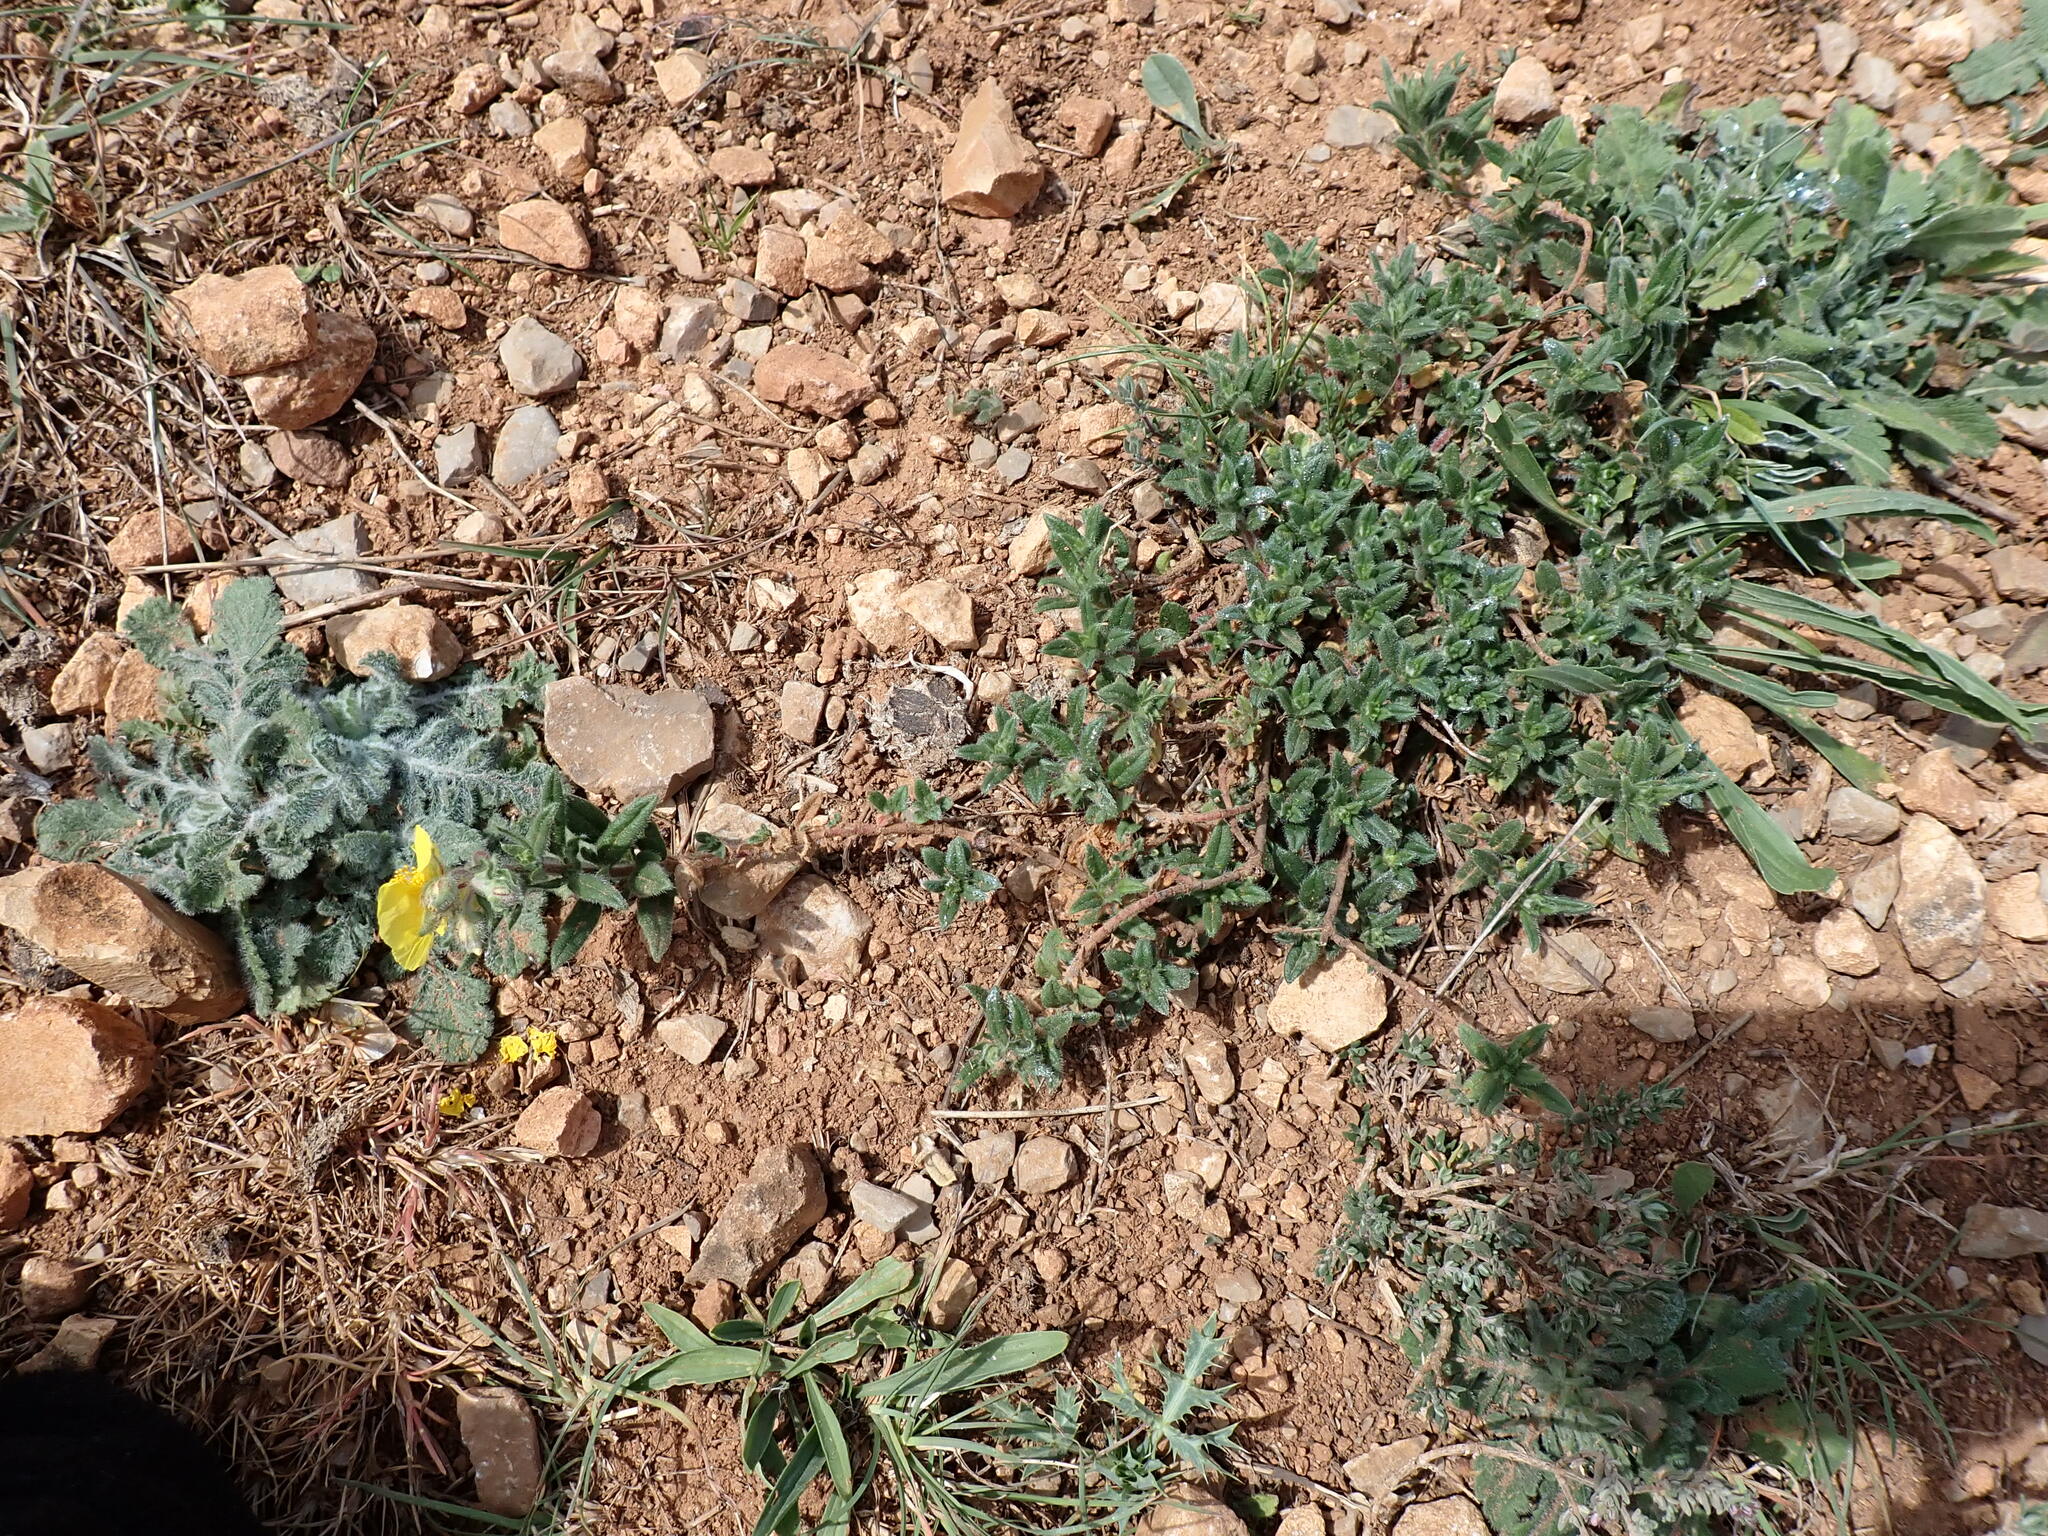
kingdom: Plantae
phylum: Tracheophyta
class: Magnoliopsida
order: Malvales
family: Cistaceae
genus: Helianthemum
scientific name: Helianthemum nummularium
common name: Common rock-rose
